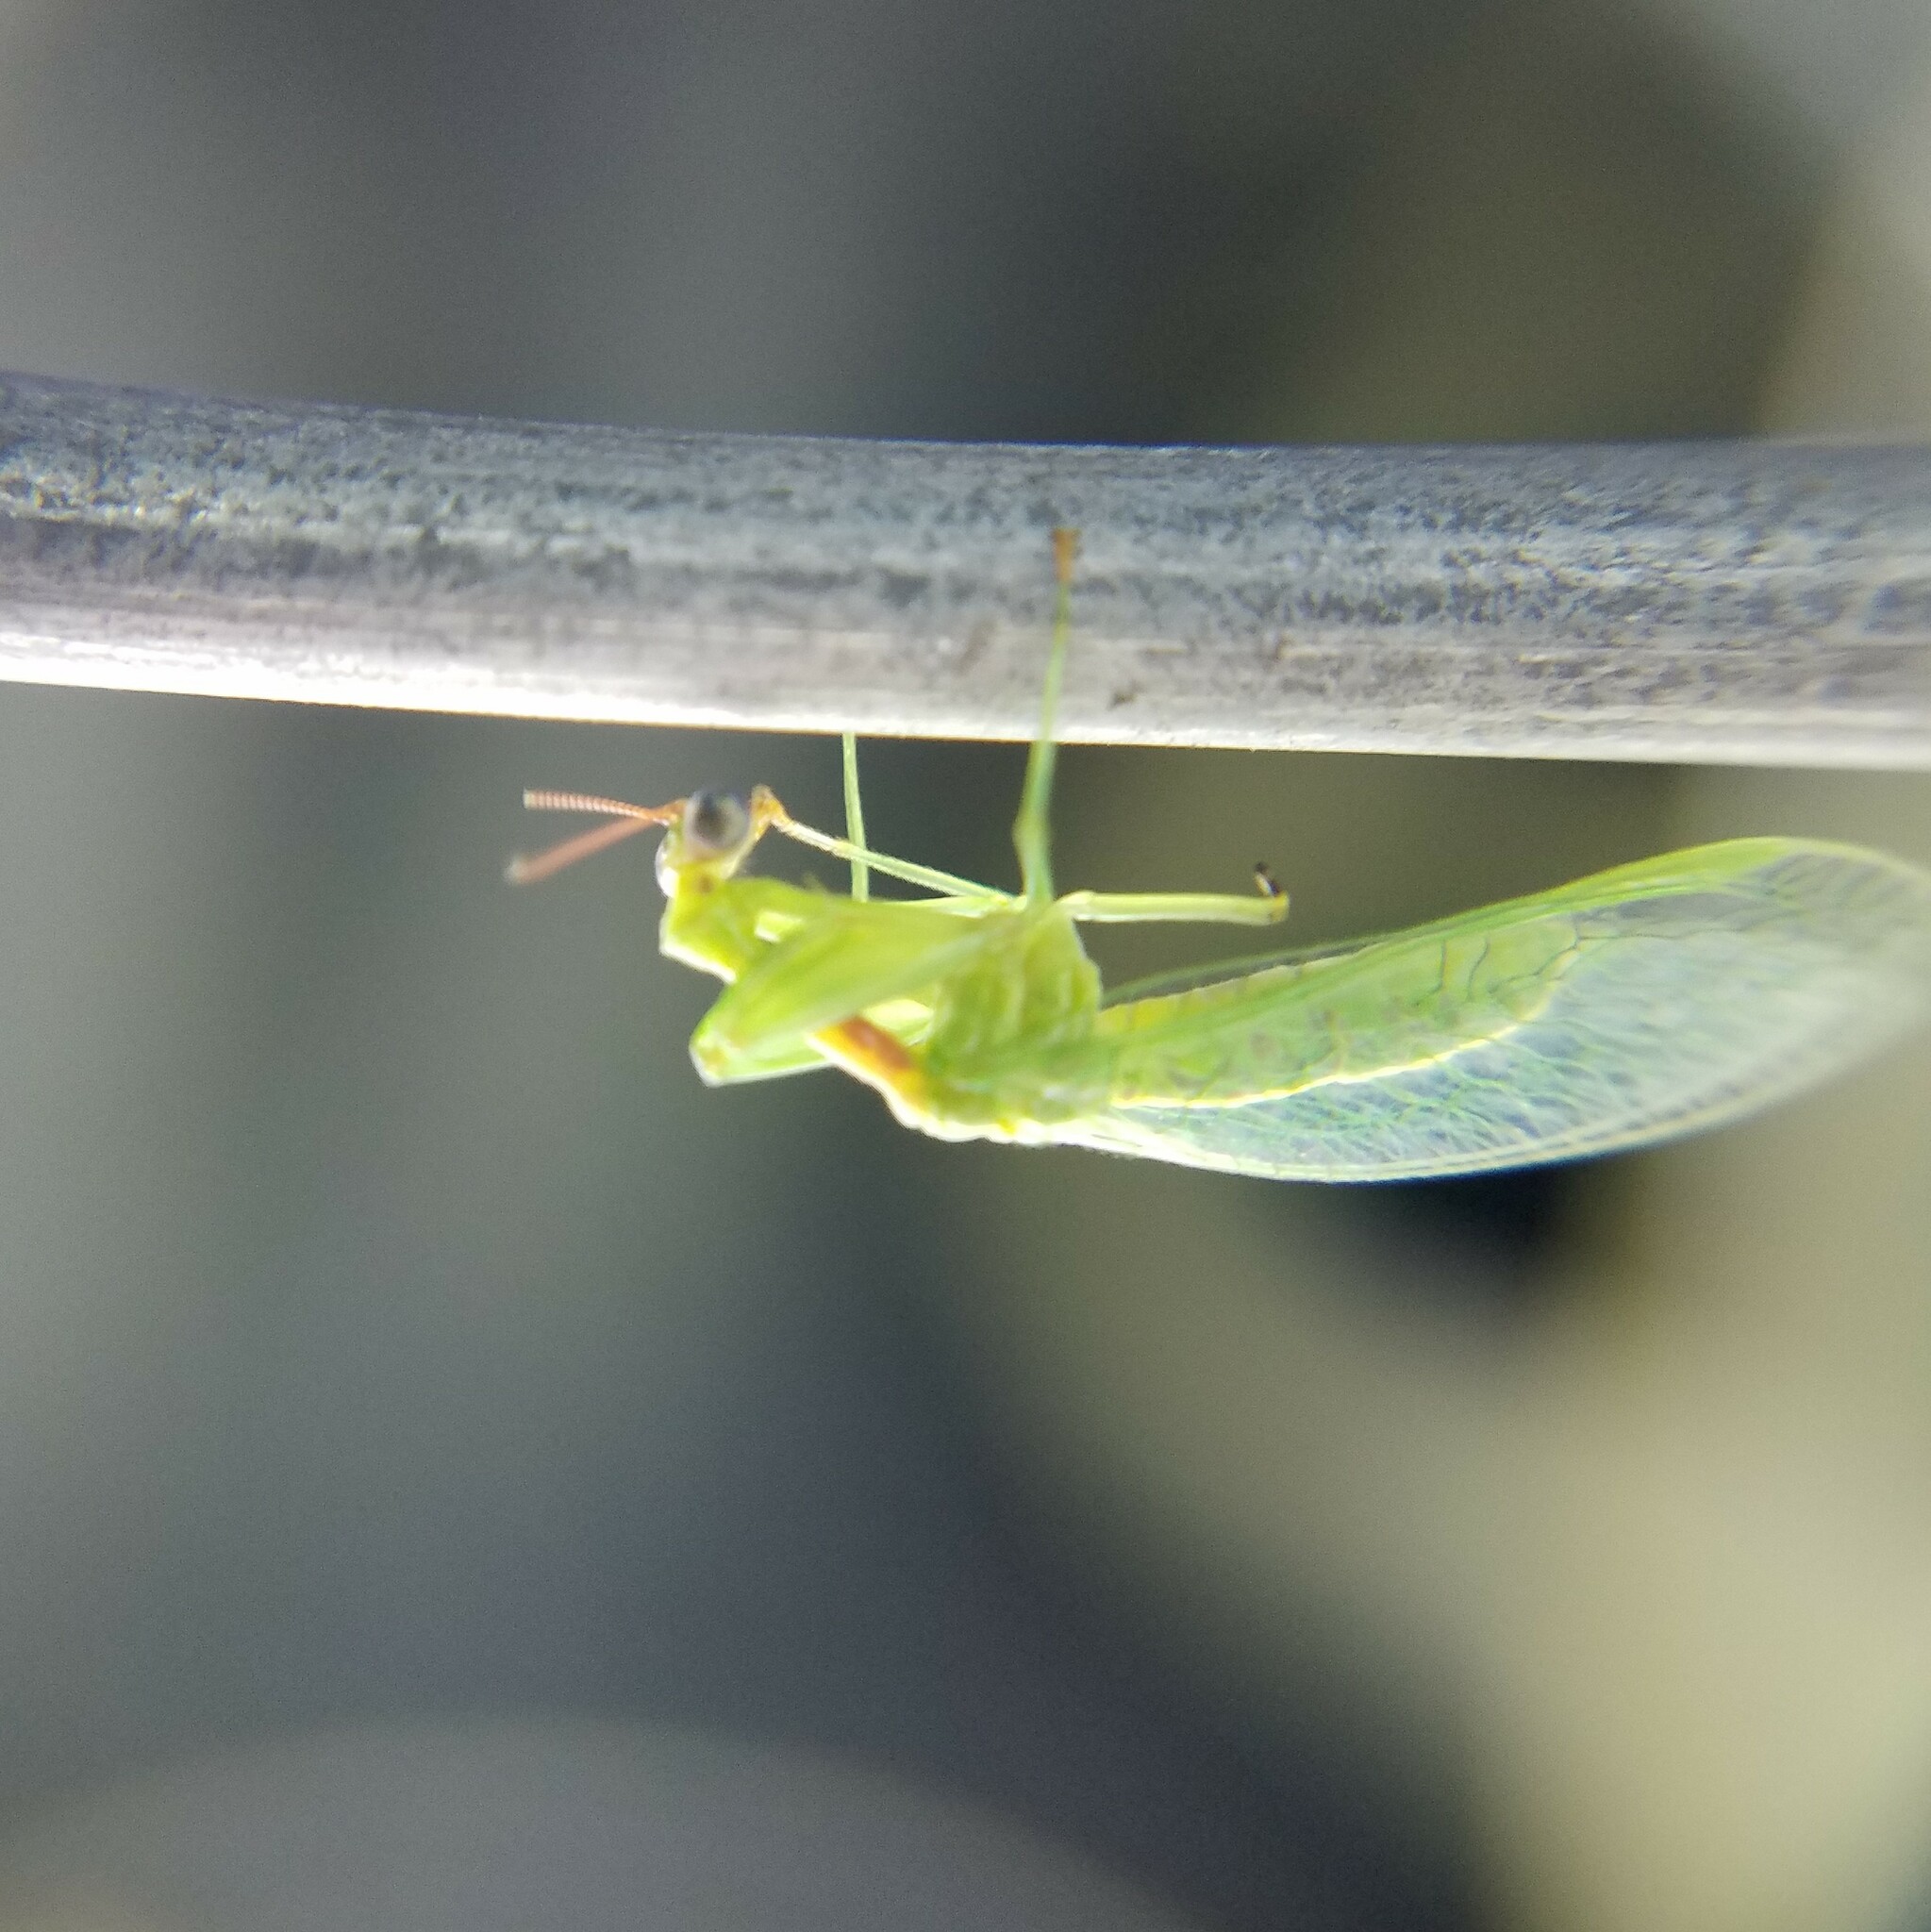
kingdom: Animalia
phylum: Arthropoda
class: Insecta
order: Neuroptera
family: Mantispidae
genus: Zeugomantispa
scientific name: Zeugomantispa minuta
